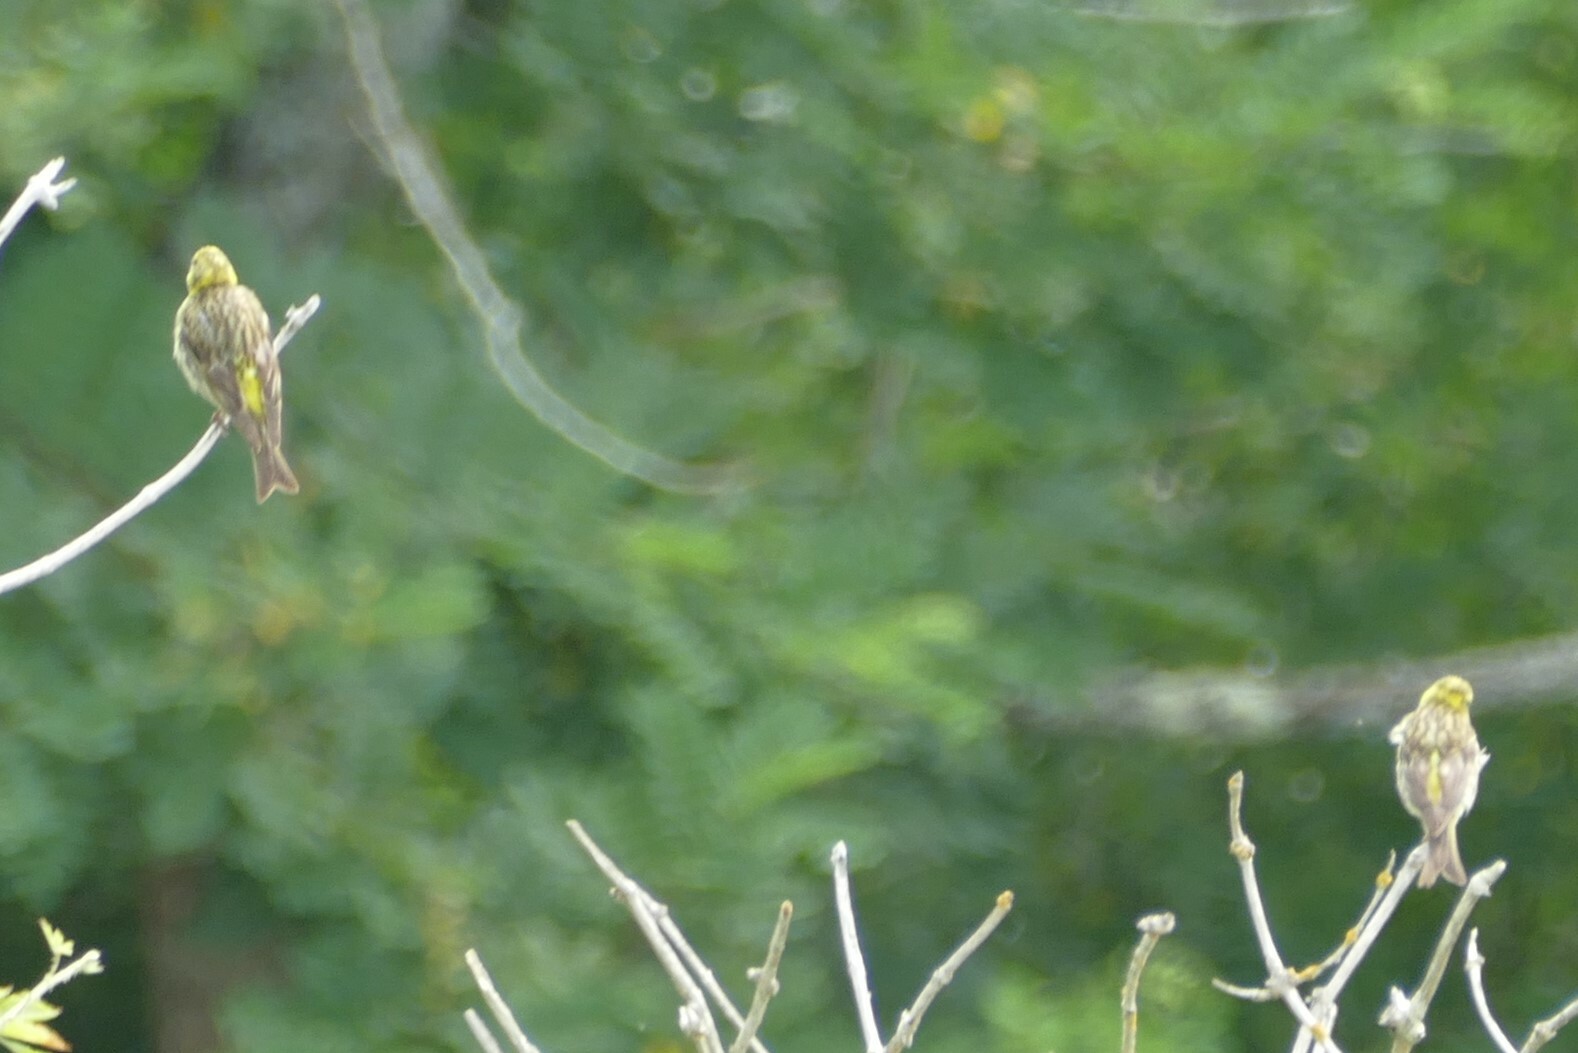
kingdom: Animalia
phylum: Chordata
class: Aves
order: Passeriformes
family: Fringillidae
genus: Serinus
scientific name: Serinus serinus
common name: European serin
